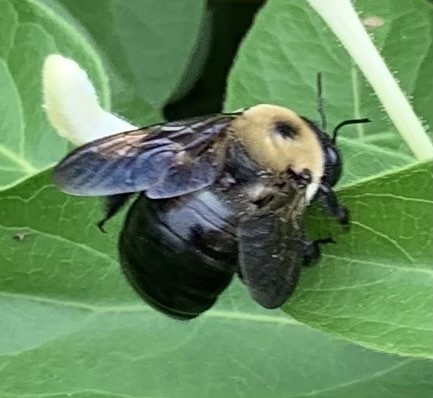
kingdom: Animalia
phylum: Arthropoda
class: Insecta
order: Hymenoptera
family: Apidae
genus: Xylocopa
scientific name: Xylocopa virginica
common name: Carpenter bee
